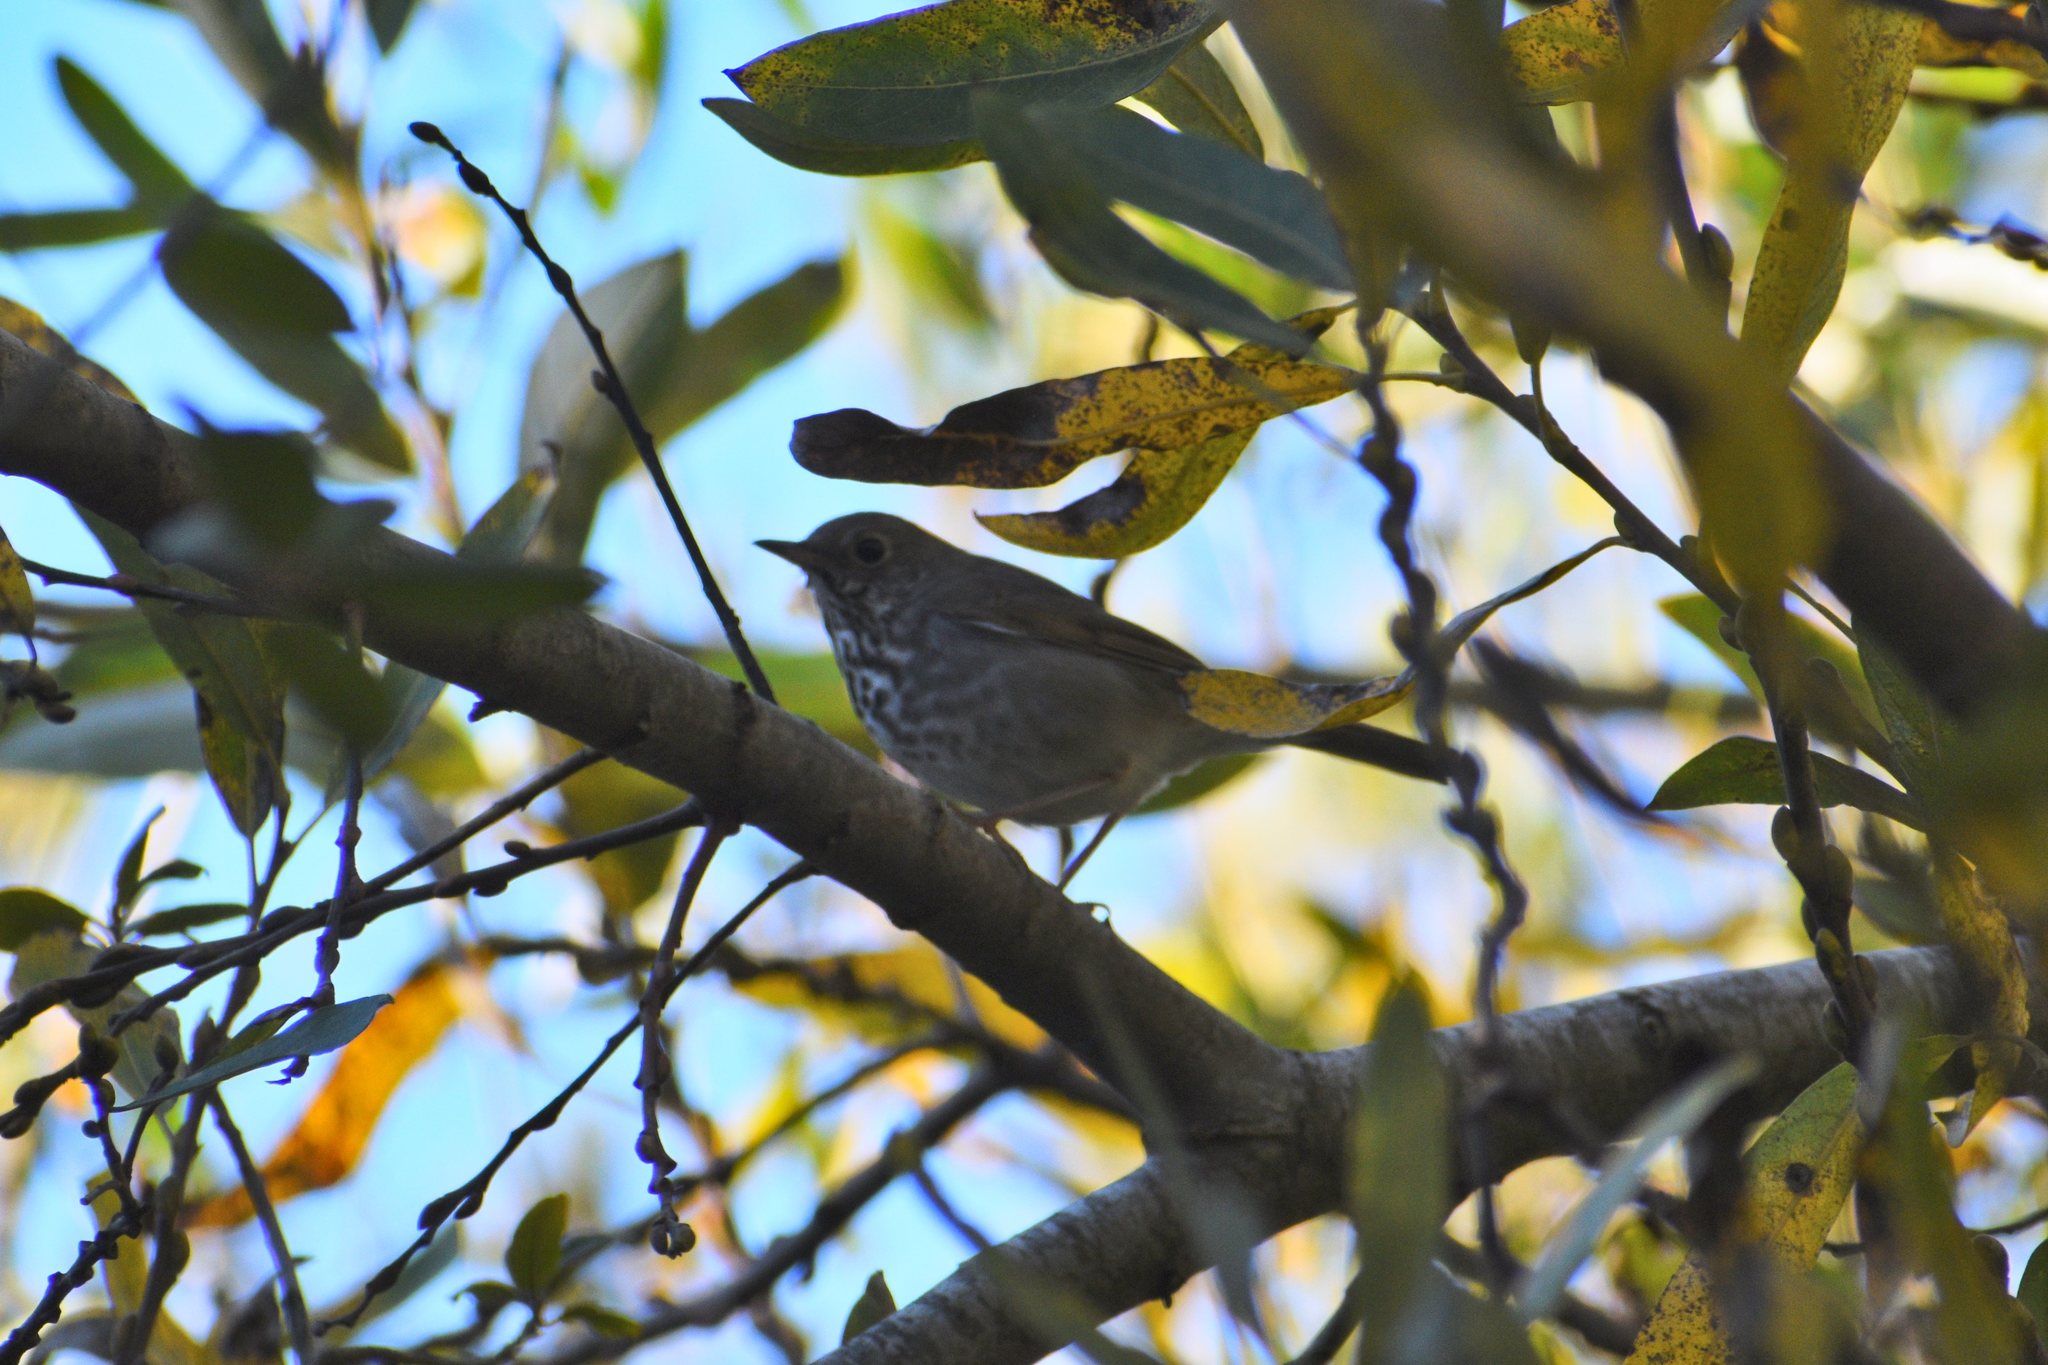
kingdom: Animalia
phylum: Chordata
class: Aves
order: Passeriformes
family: Turdidae
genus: Catharus
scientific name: Catharus guttatus
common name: Hermit thrush
